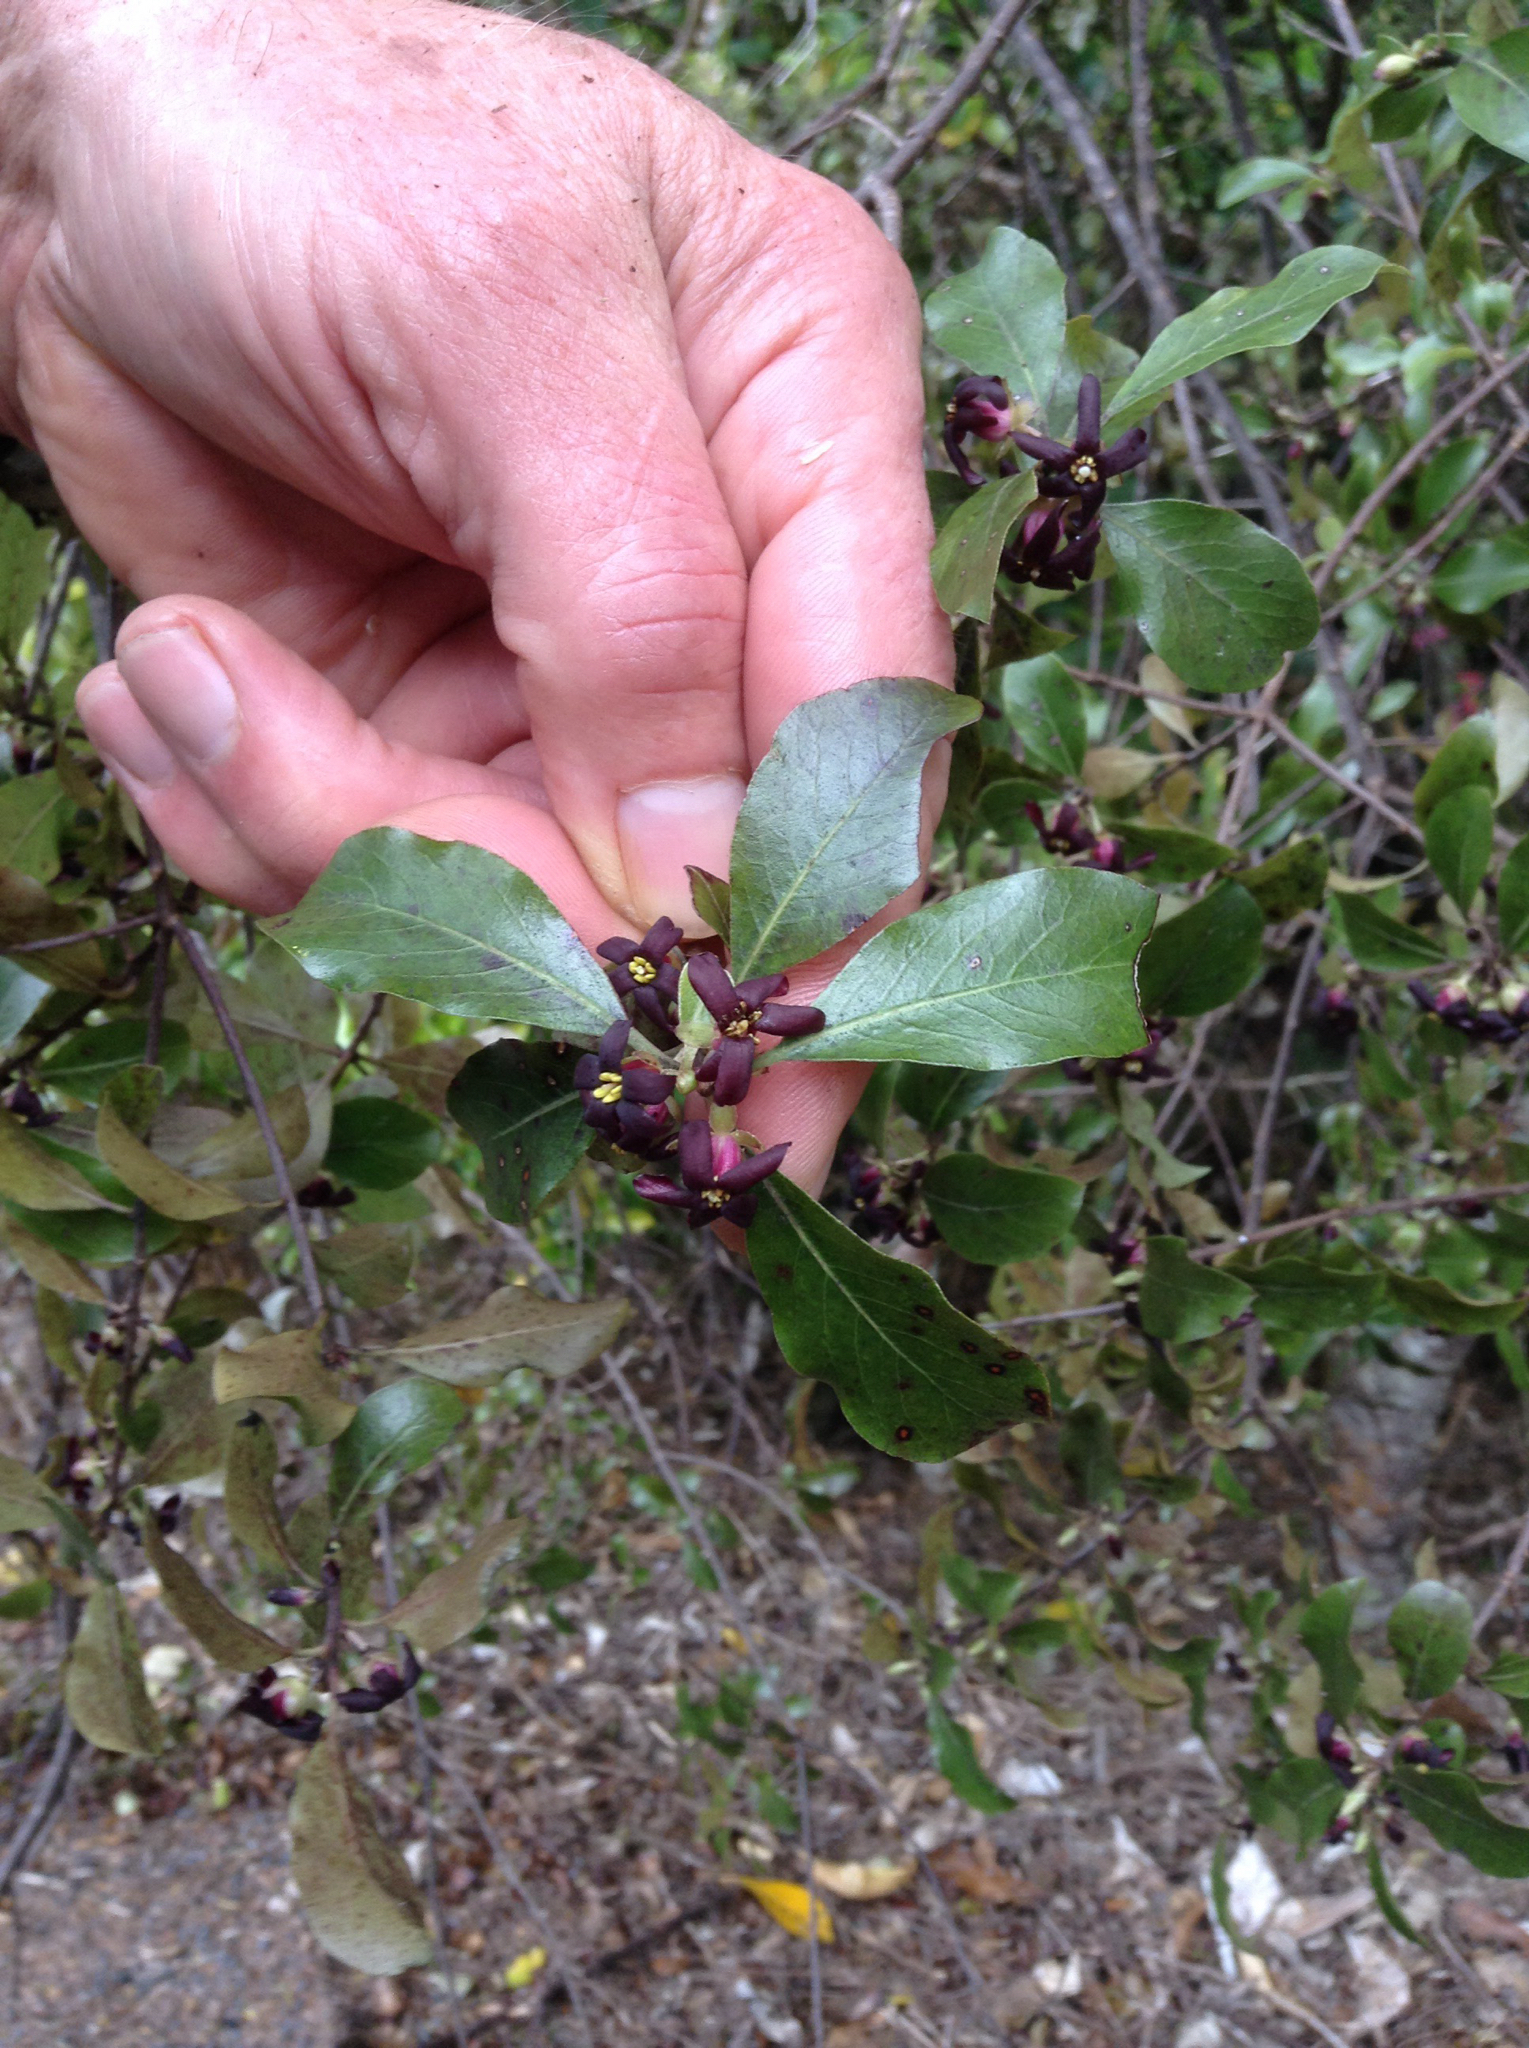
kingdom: Plantae
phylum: Tracheophyta
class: Magnoliopsida
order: Apiales
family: Pittosporaceae
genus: Pittosporum
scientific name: Pittosporum tenuifolium
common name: Kohuhu
